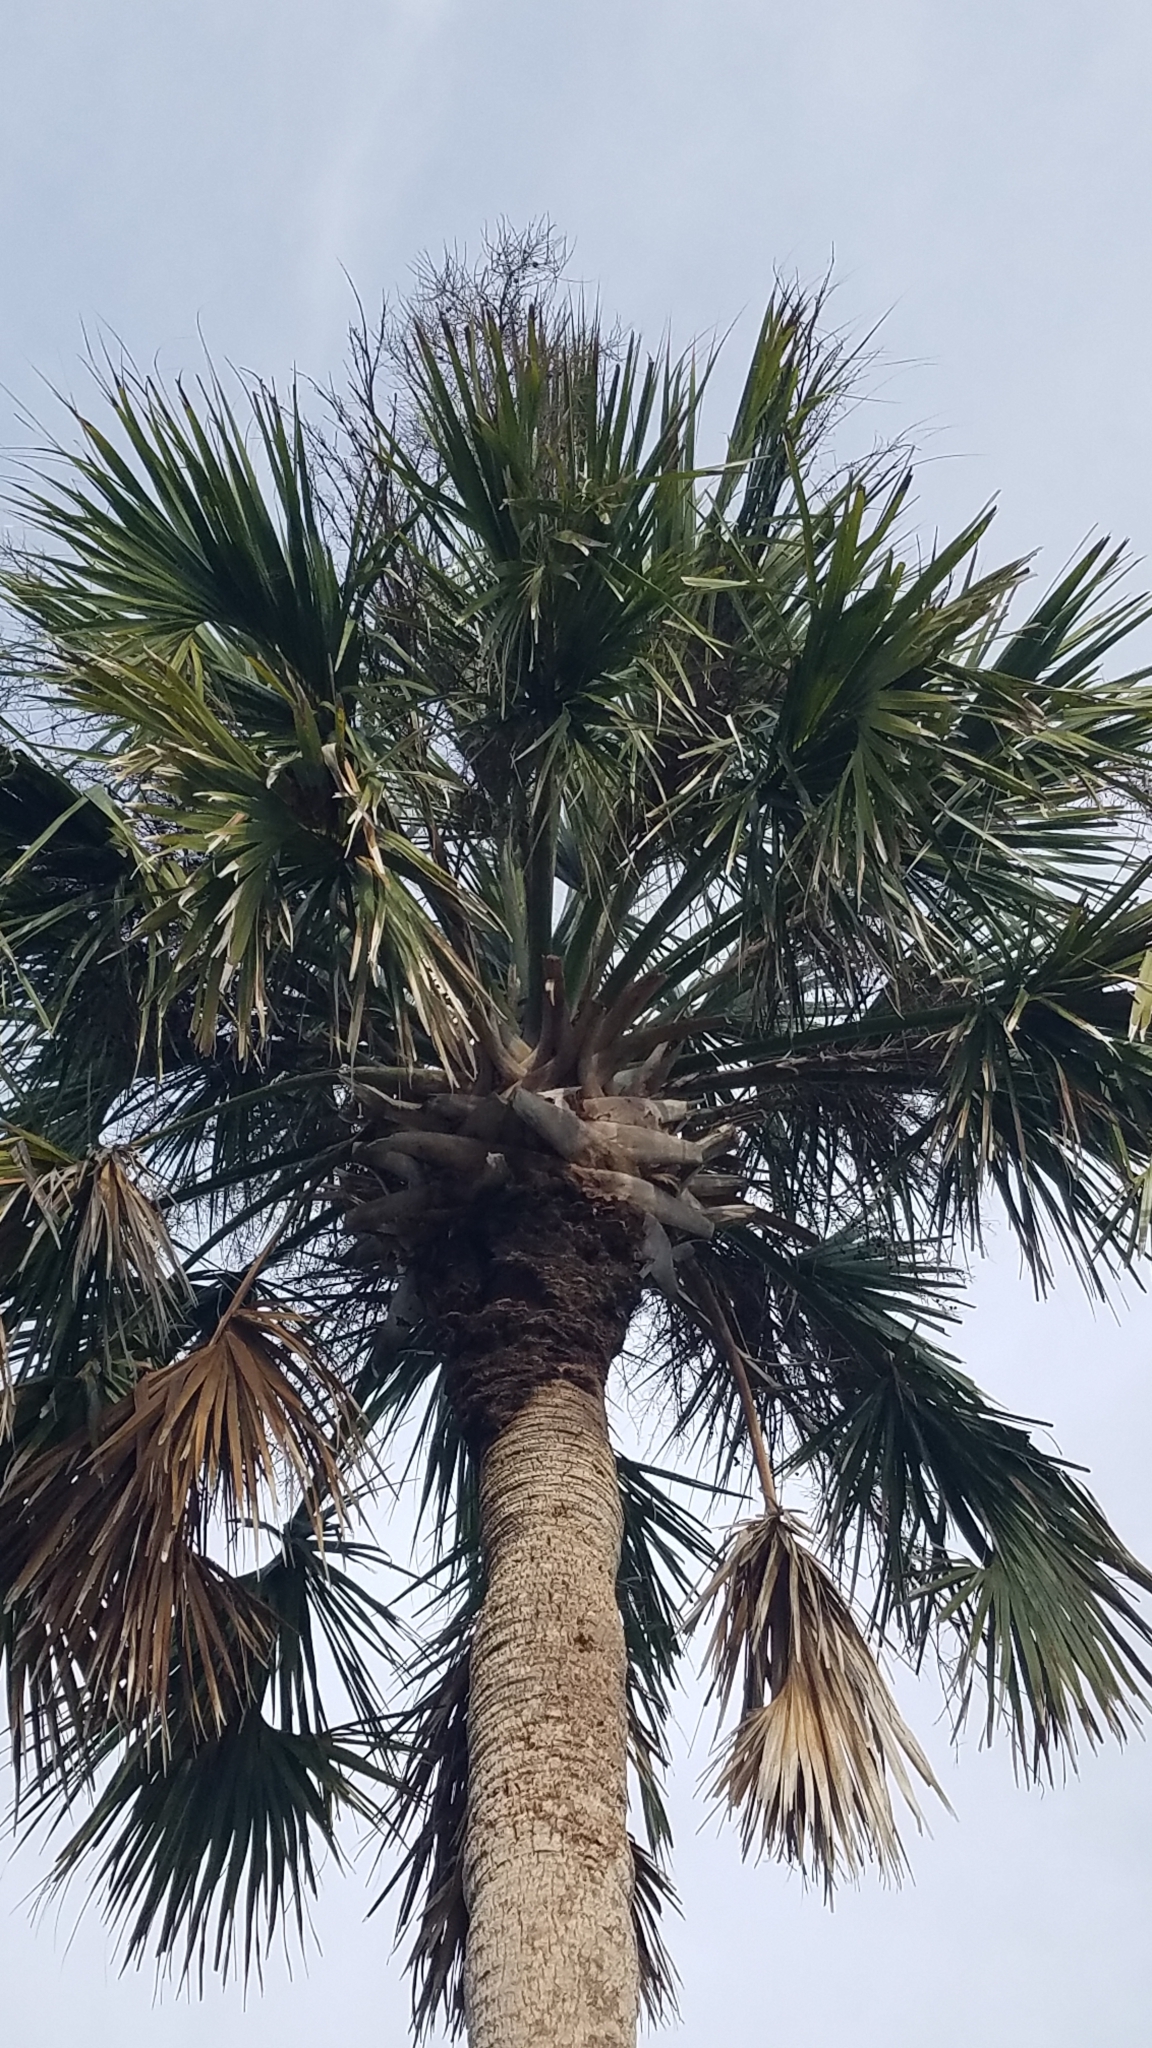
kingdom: Plantae
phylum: Tracheophyta
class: Liliopsida
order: Arecales
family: Arecaceae
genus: Sabal
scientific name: Sabal palmetto
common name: Blue palmetto
